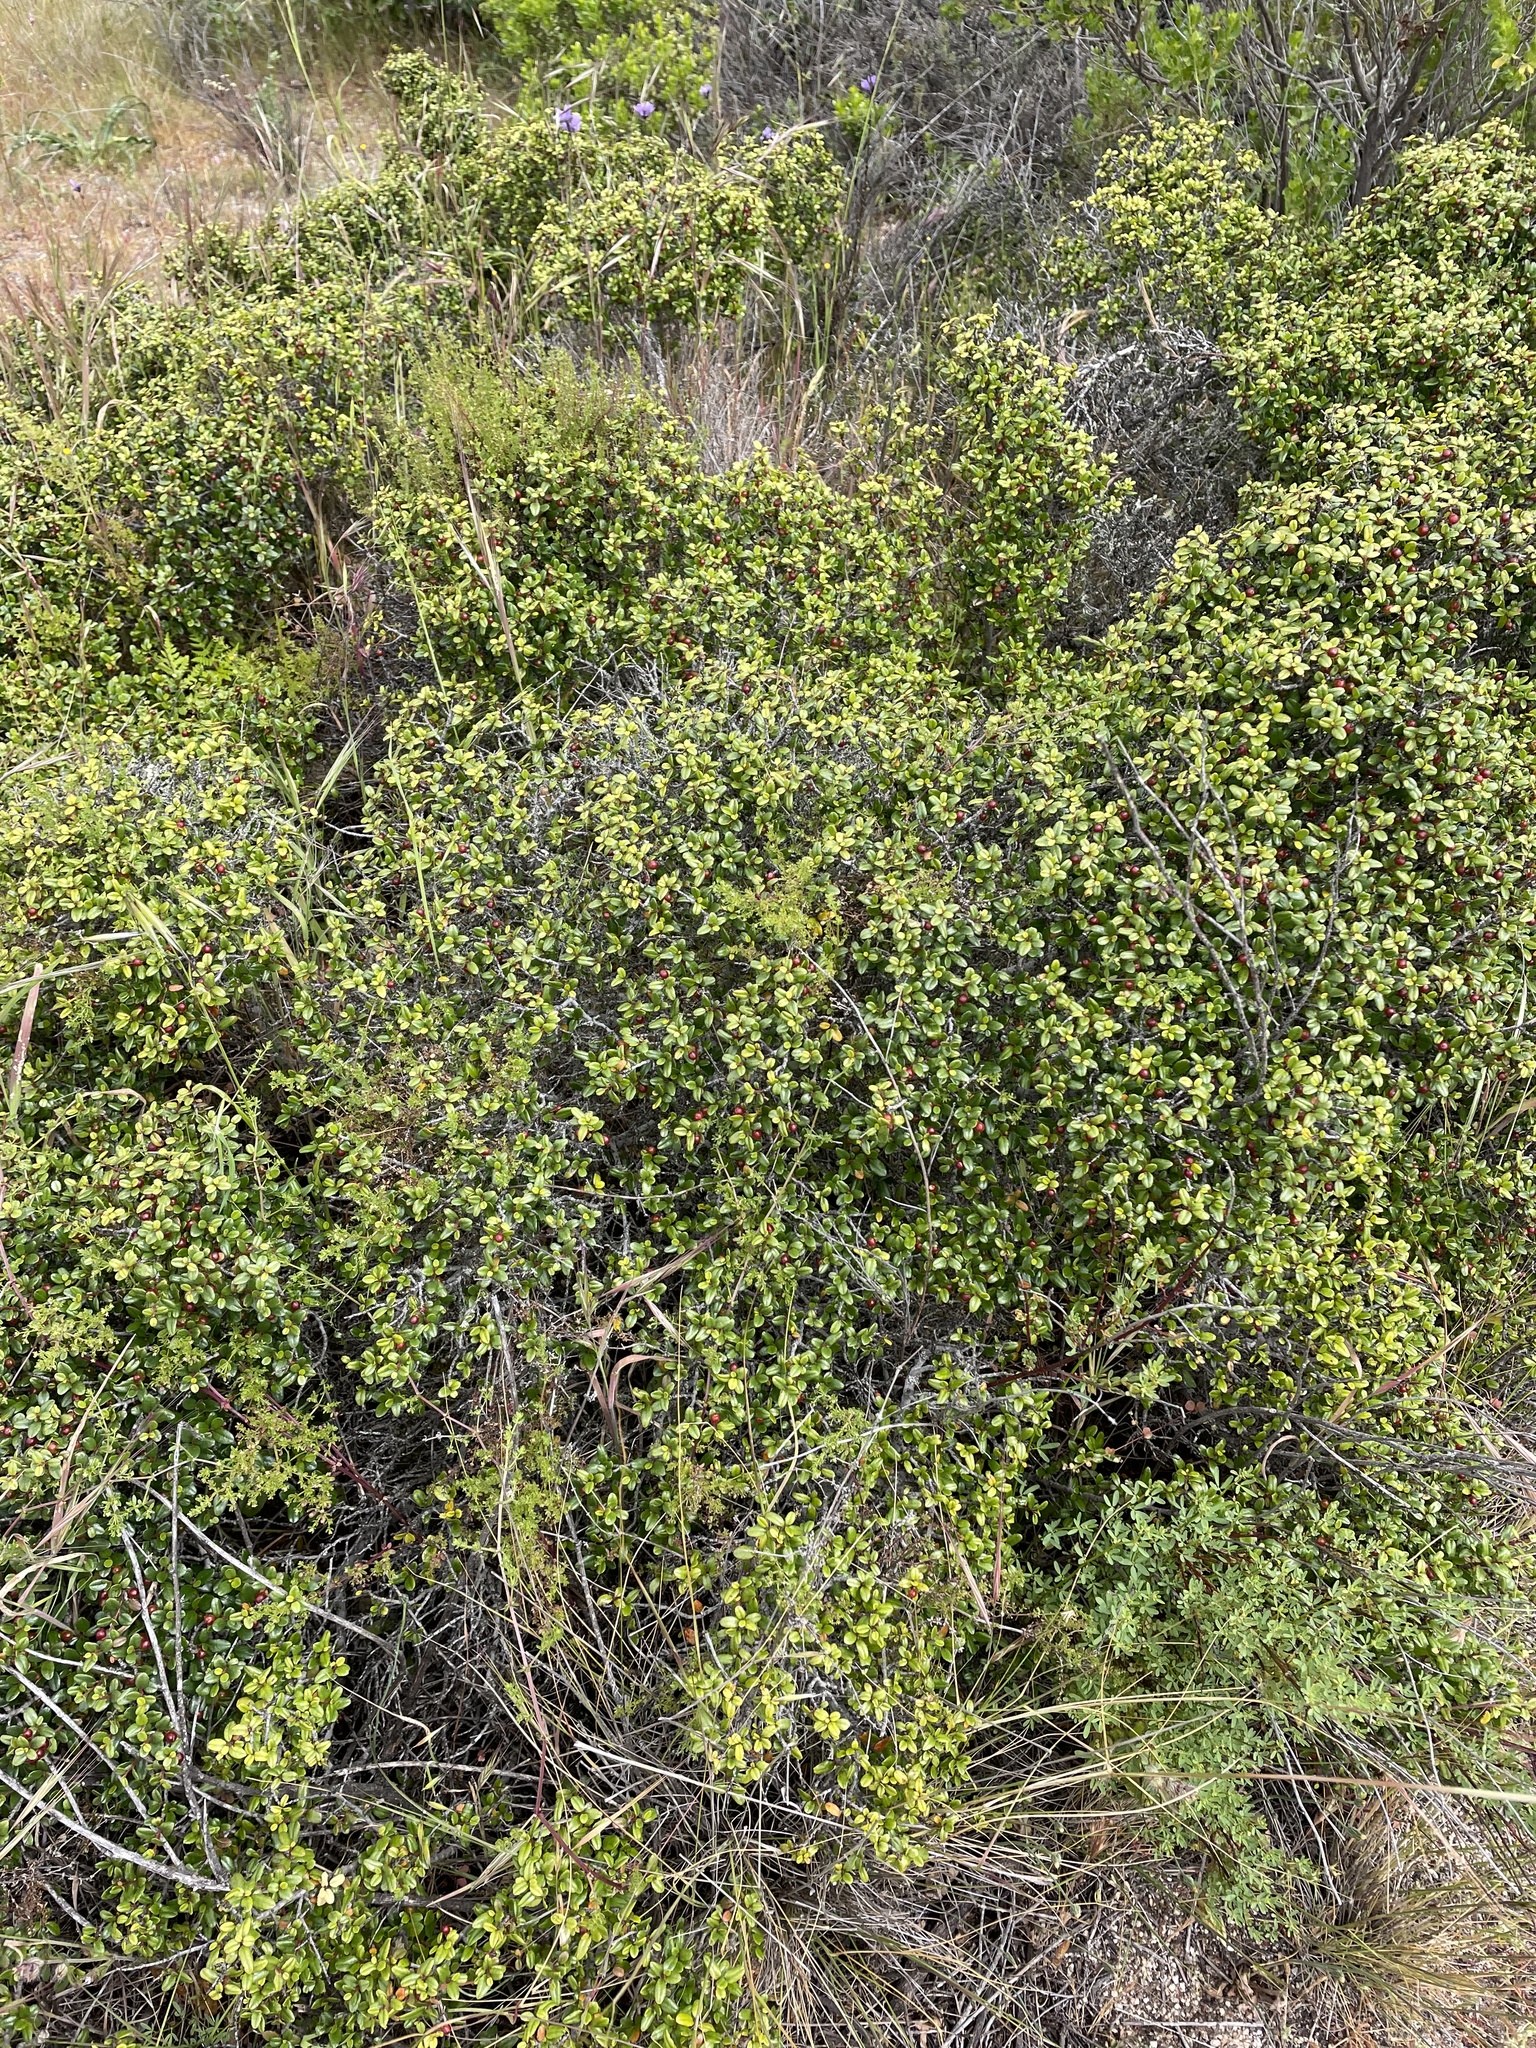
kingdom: Plantae
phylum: Tracheophyta
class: Magnoliopsida
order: Rosales
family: Rhamnaceae
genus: Endotropis
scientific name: Endotropis crocea
